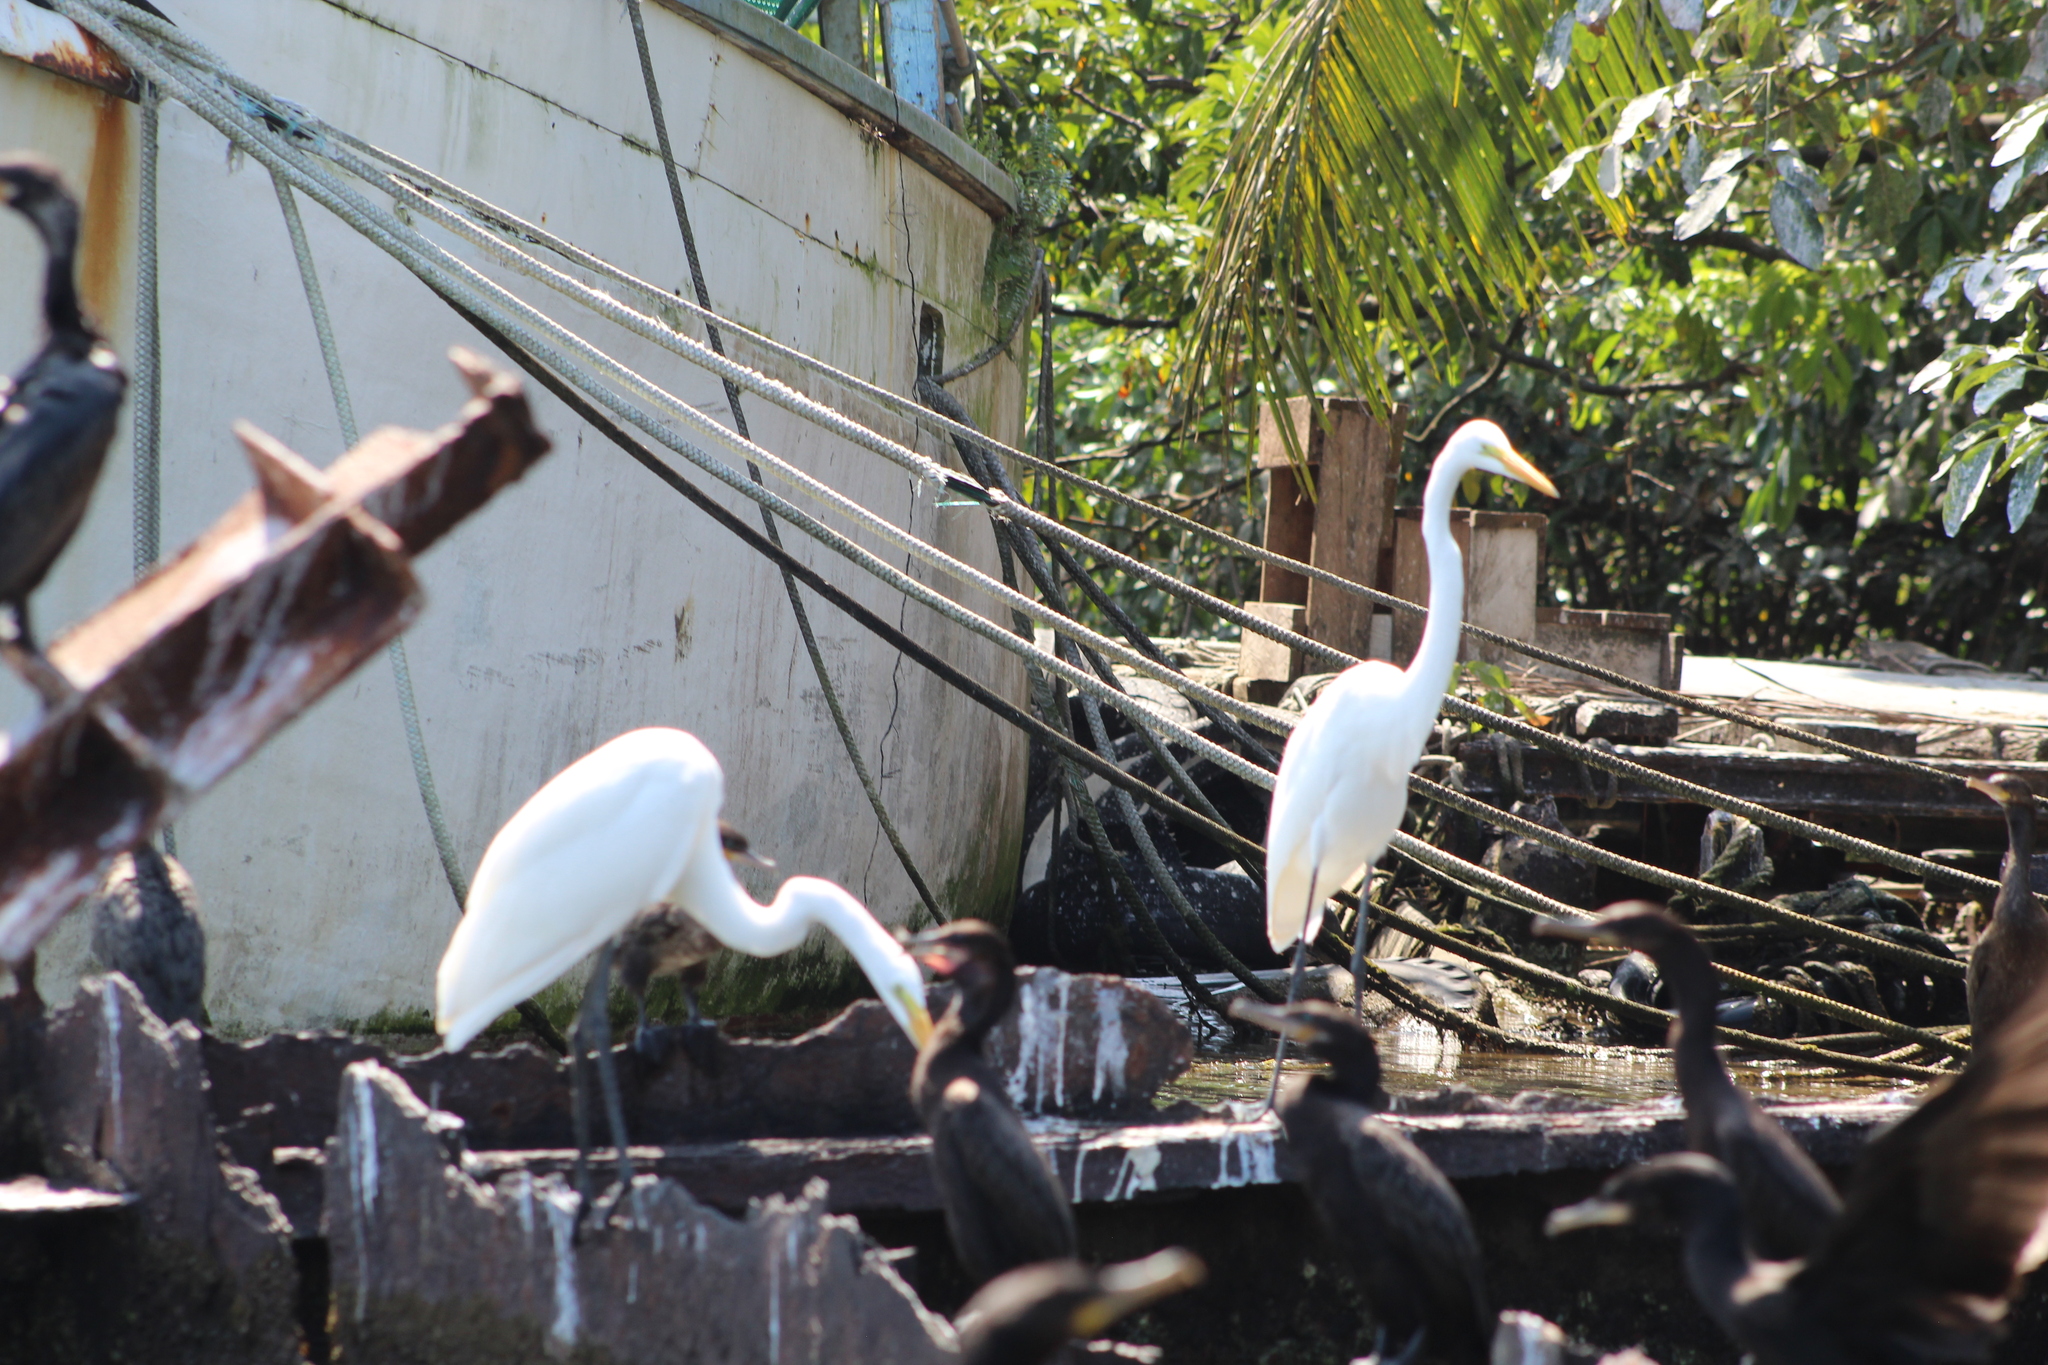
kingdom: Animalia
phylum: Chordata
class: Aves
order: Pelecaniformes
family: Ardeidae
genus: Ardea
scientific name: Ardea alba
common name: Great egret
